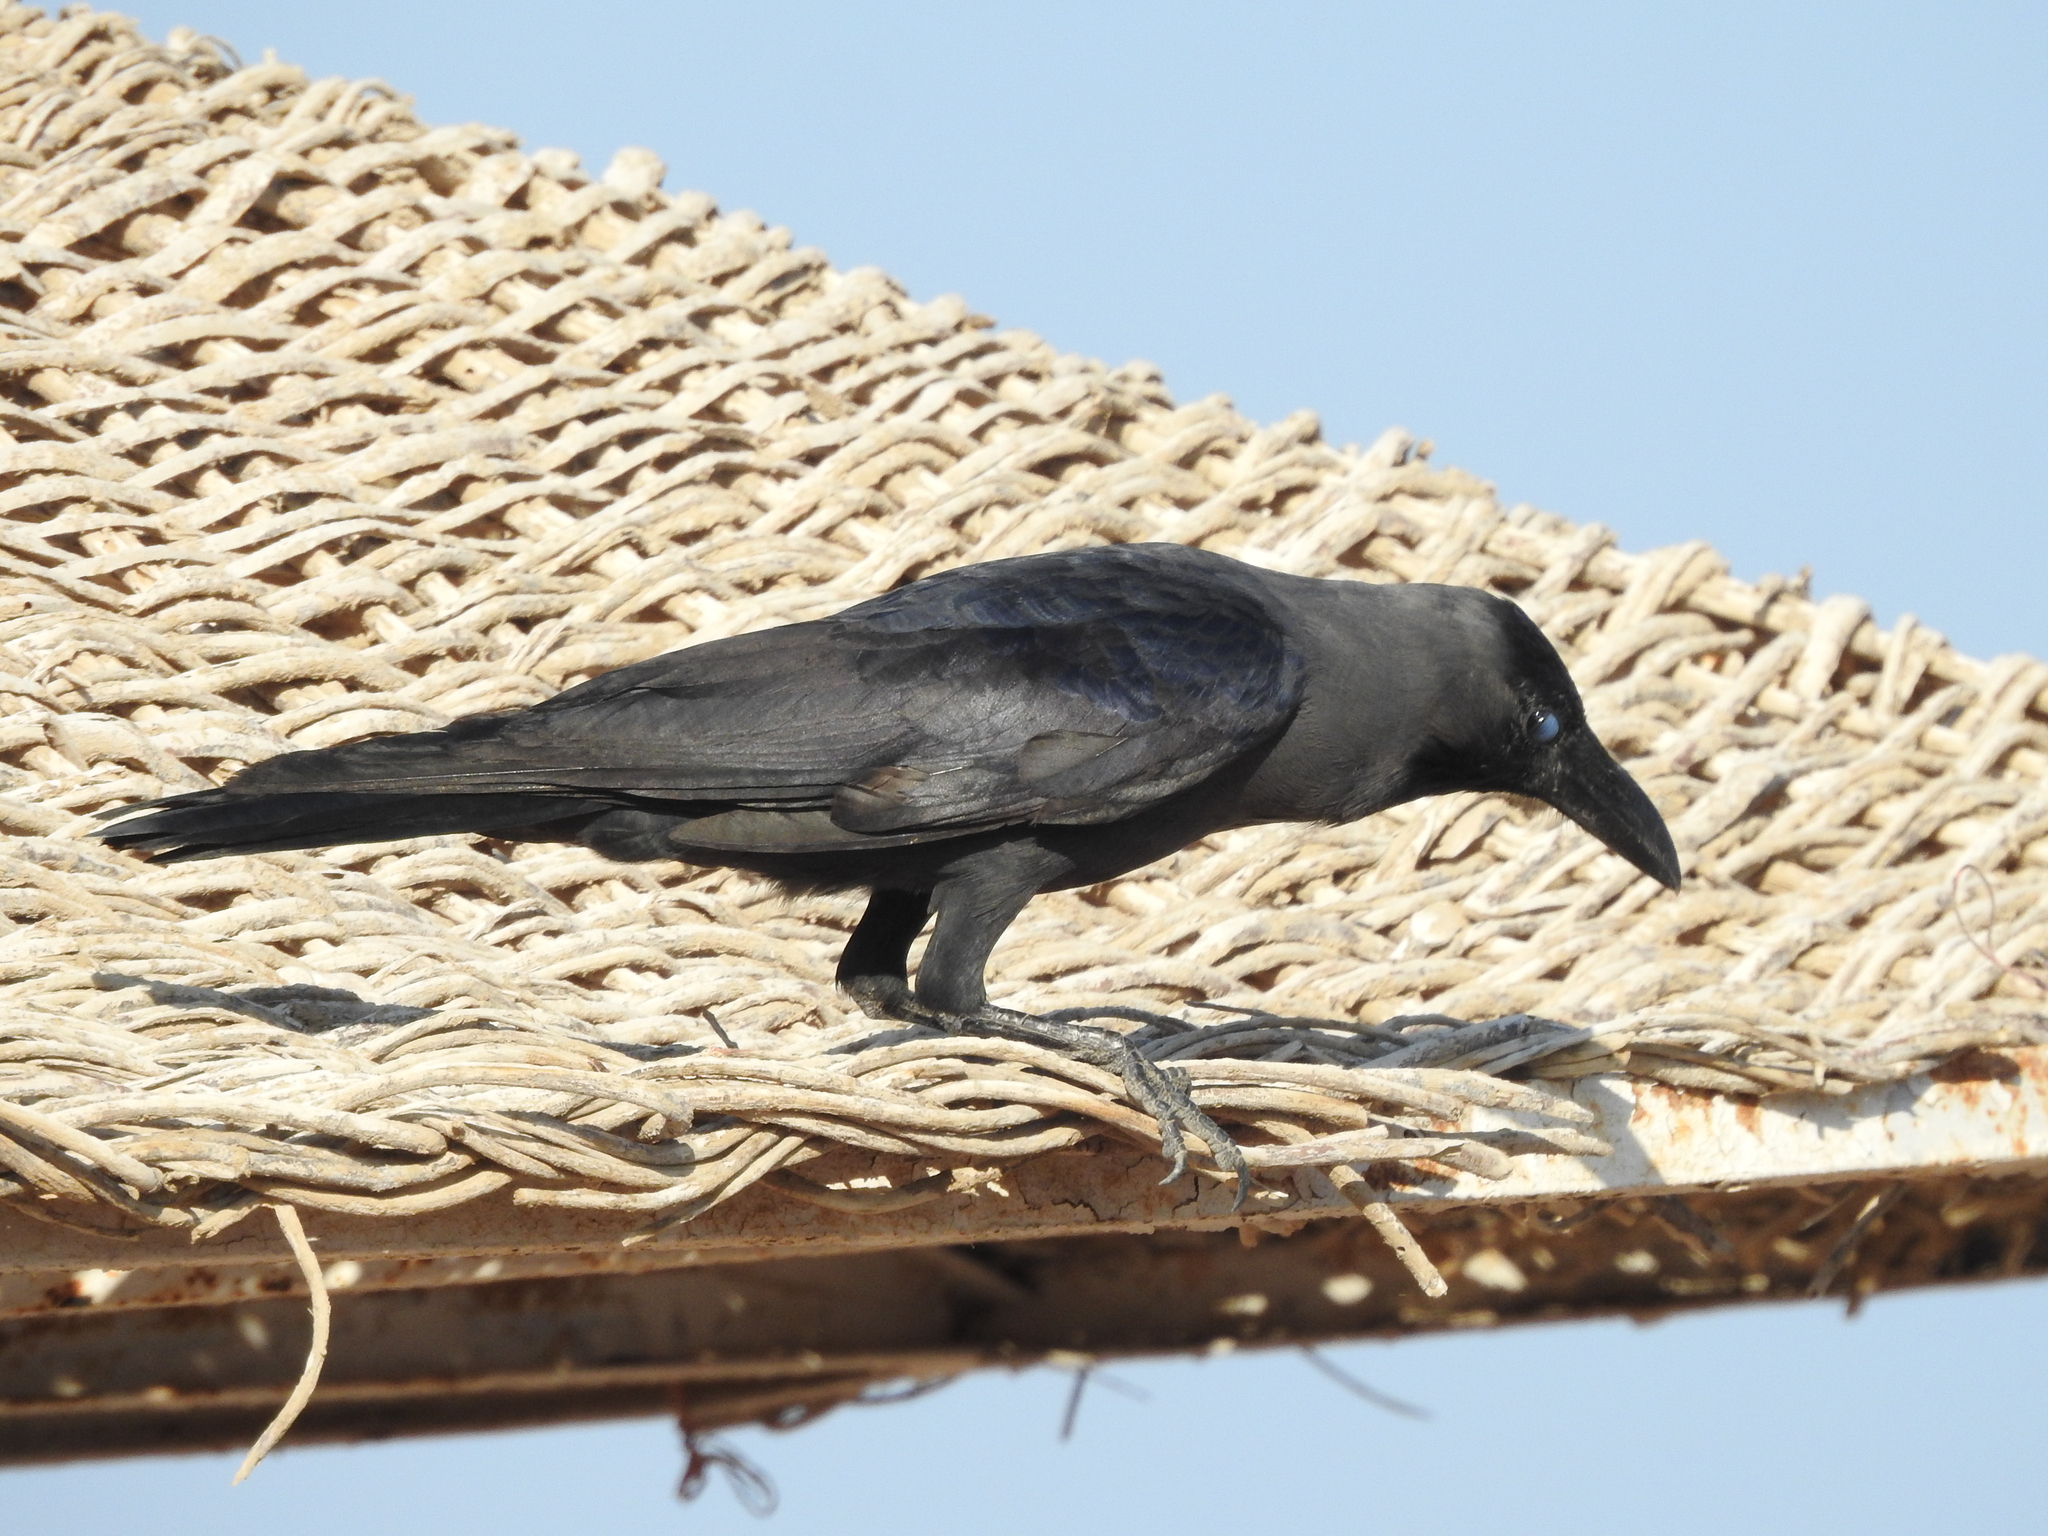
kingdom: Animalia
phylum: Chordata
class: Aves
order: Passeriformes
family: Corvidae
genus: Corvus
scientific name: Corvus splendens
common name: House crow
